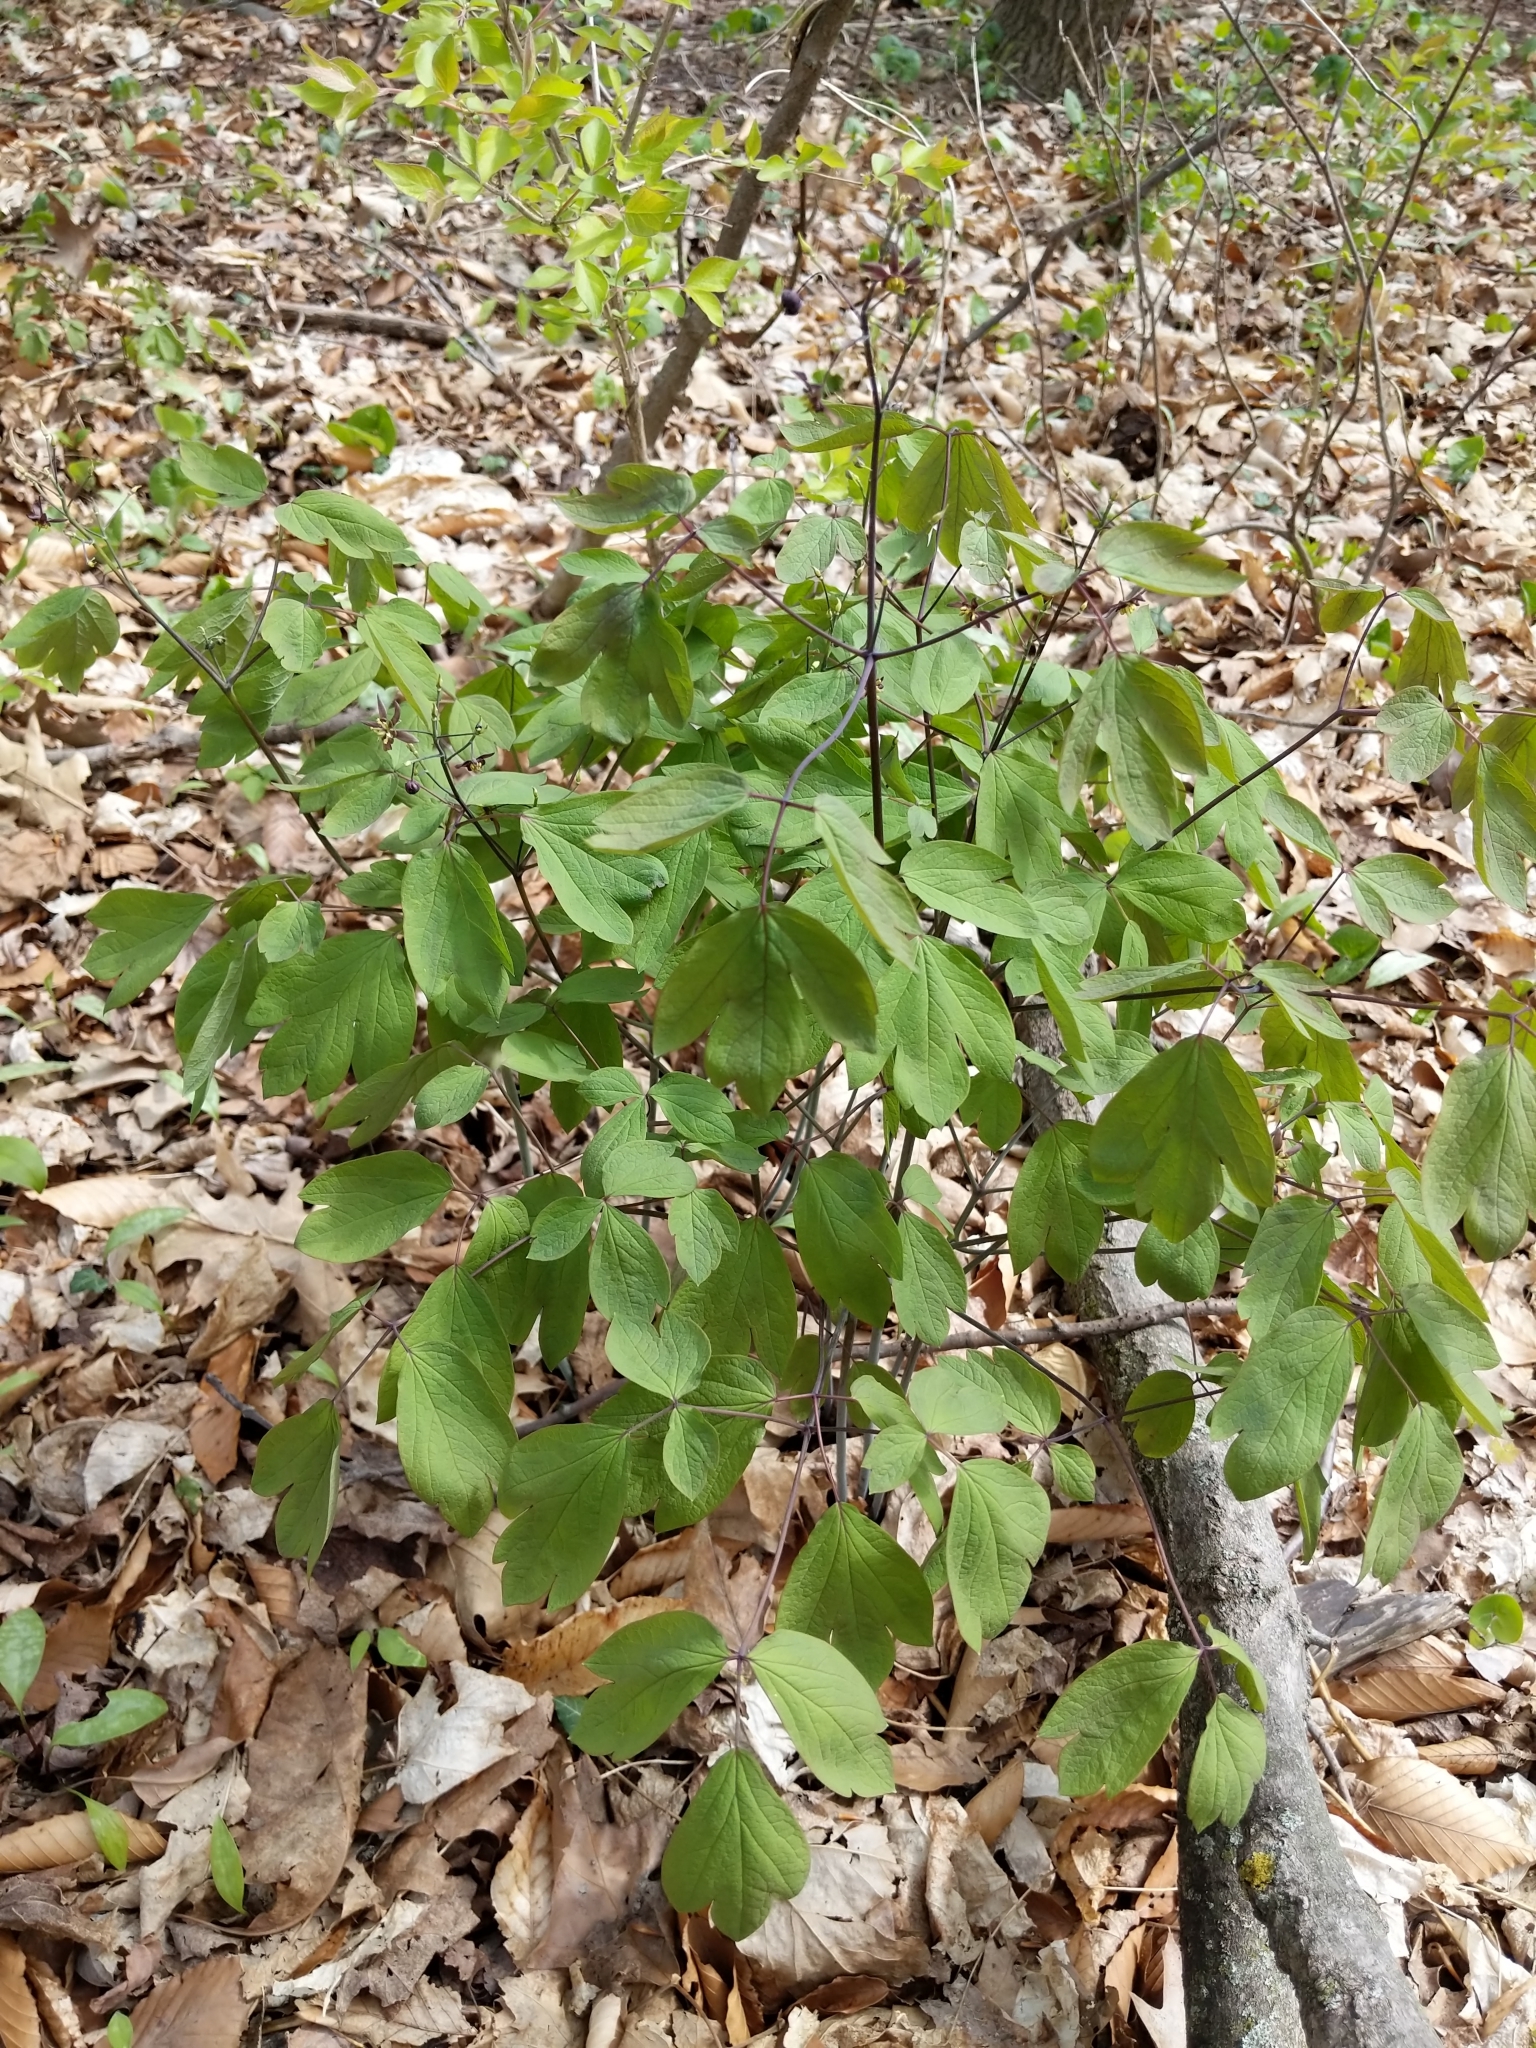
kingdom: Plantae
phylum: Tracheophyta
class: Magnoliopsida
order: Ranunculales
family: Berberidaceae
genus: Caulophyllum
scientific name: Caulophyllum giganteum
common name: Blue cohosh
